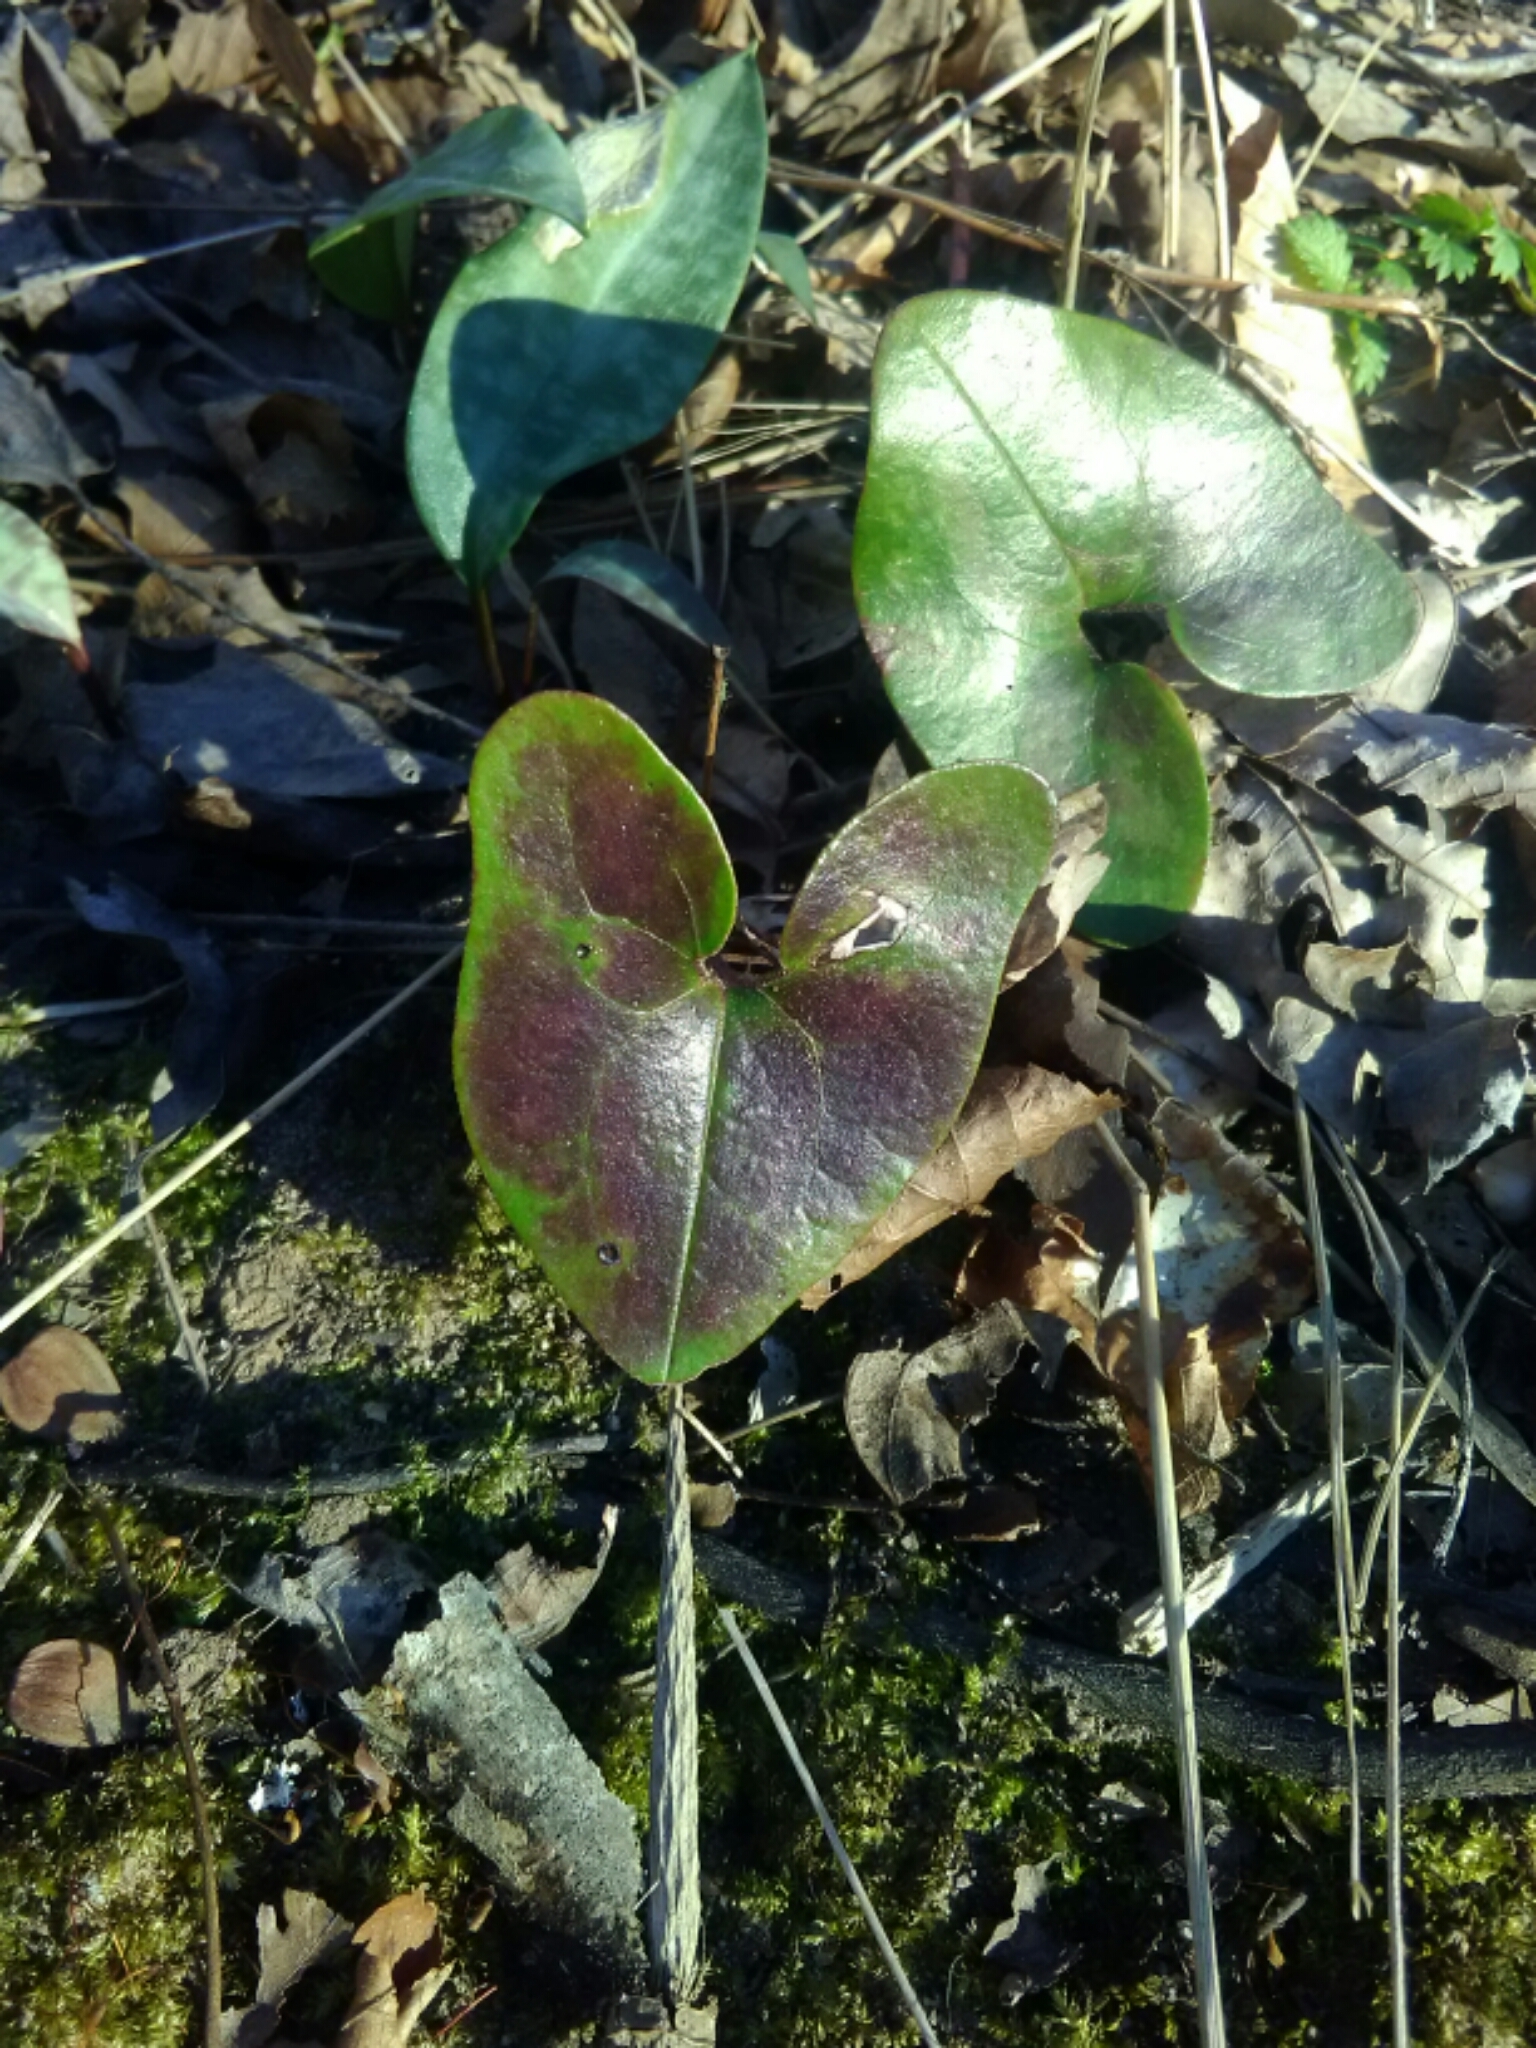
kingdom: Plantae
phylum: Tracheophyta
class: Magnoliopsida
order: Piperales
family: Aristolochiaceae
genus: Hexastylis
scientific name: Hexastylis arifolia
